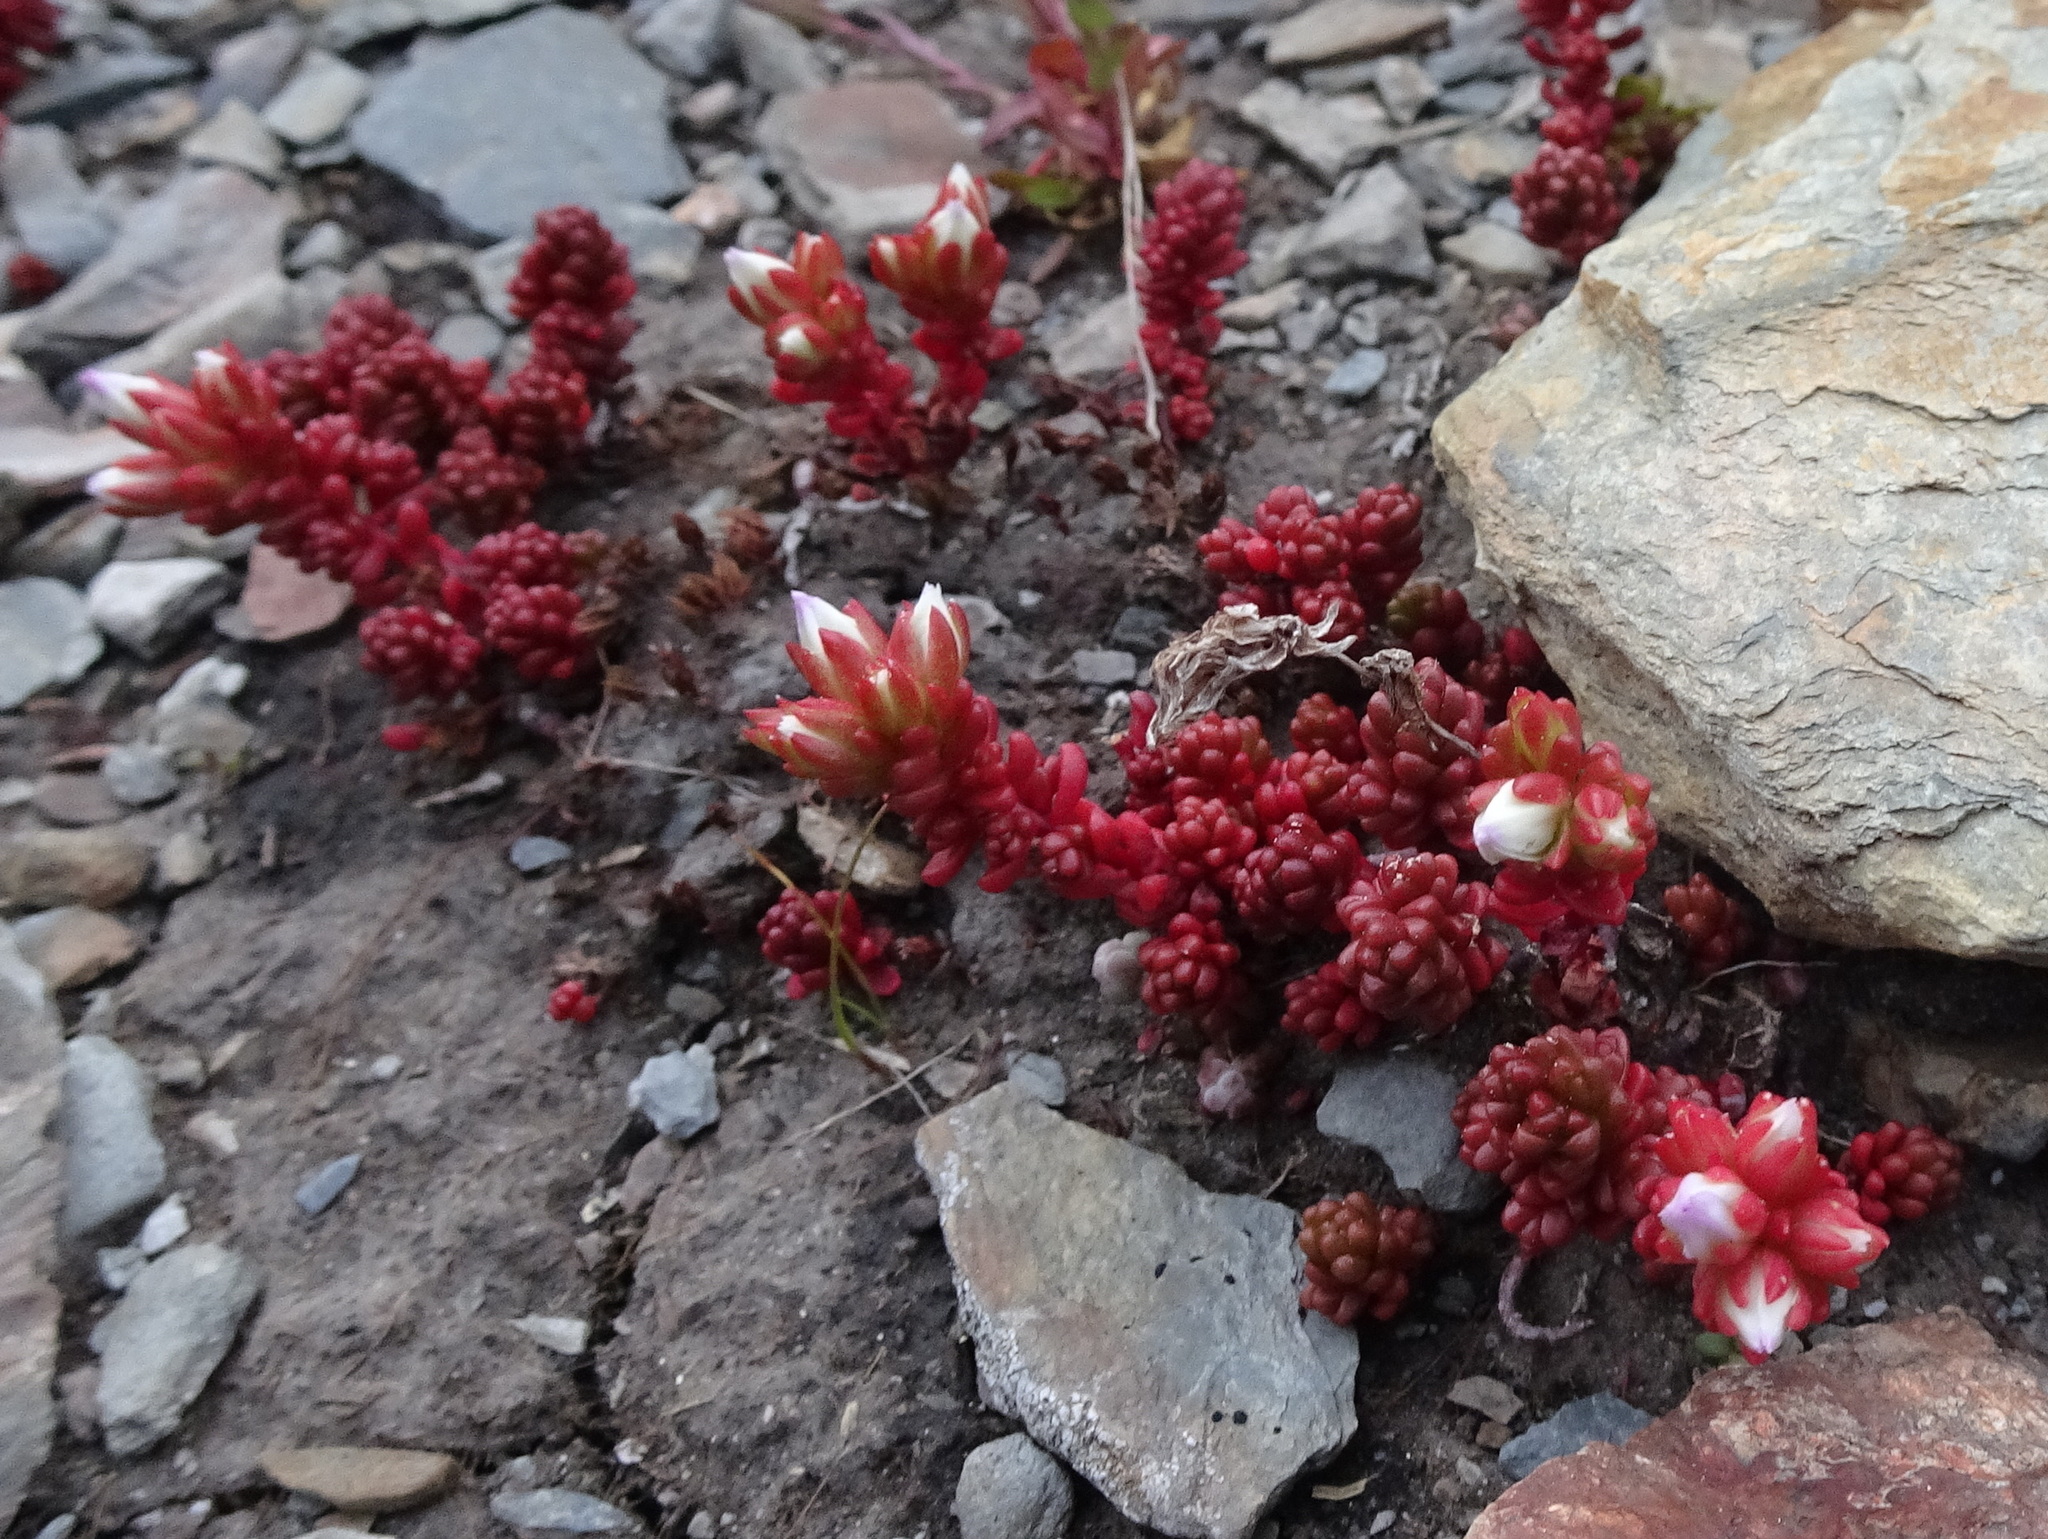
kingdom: Plantae
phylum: Tracheophyta
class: Magnoliopsida
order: Saxifragales
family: Crassulaceae
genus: Sedum
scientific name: Sedum candollei
